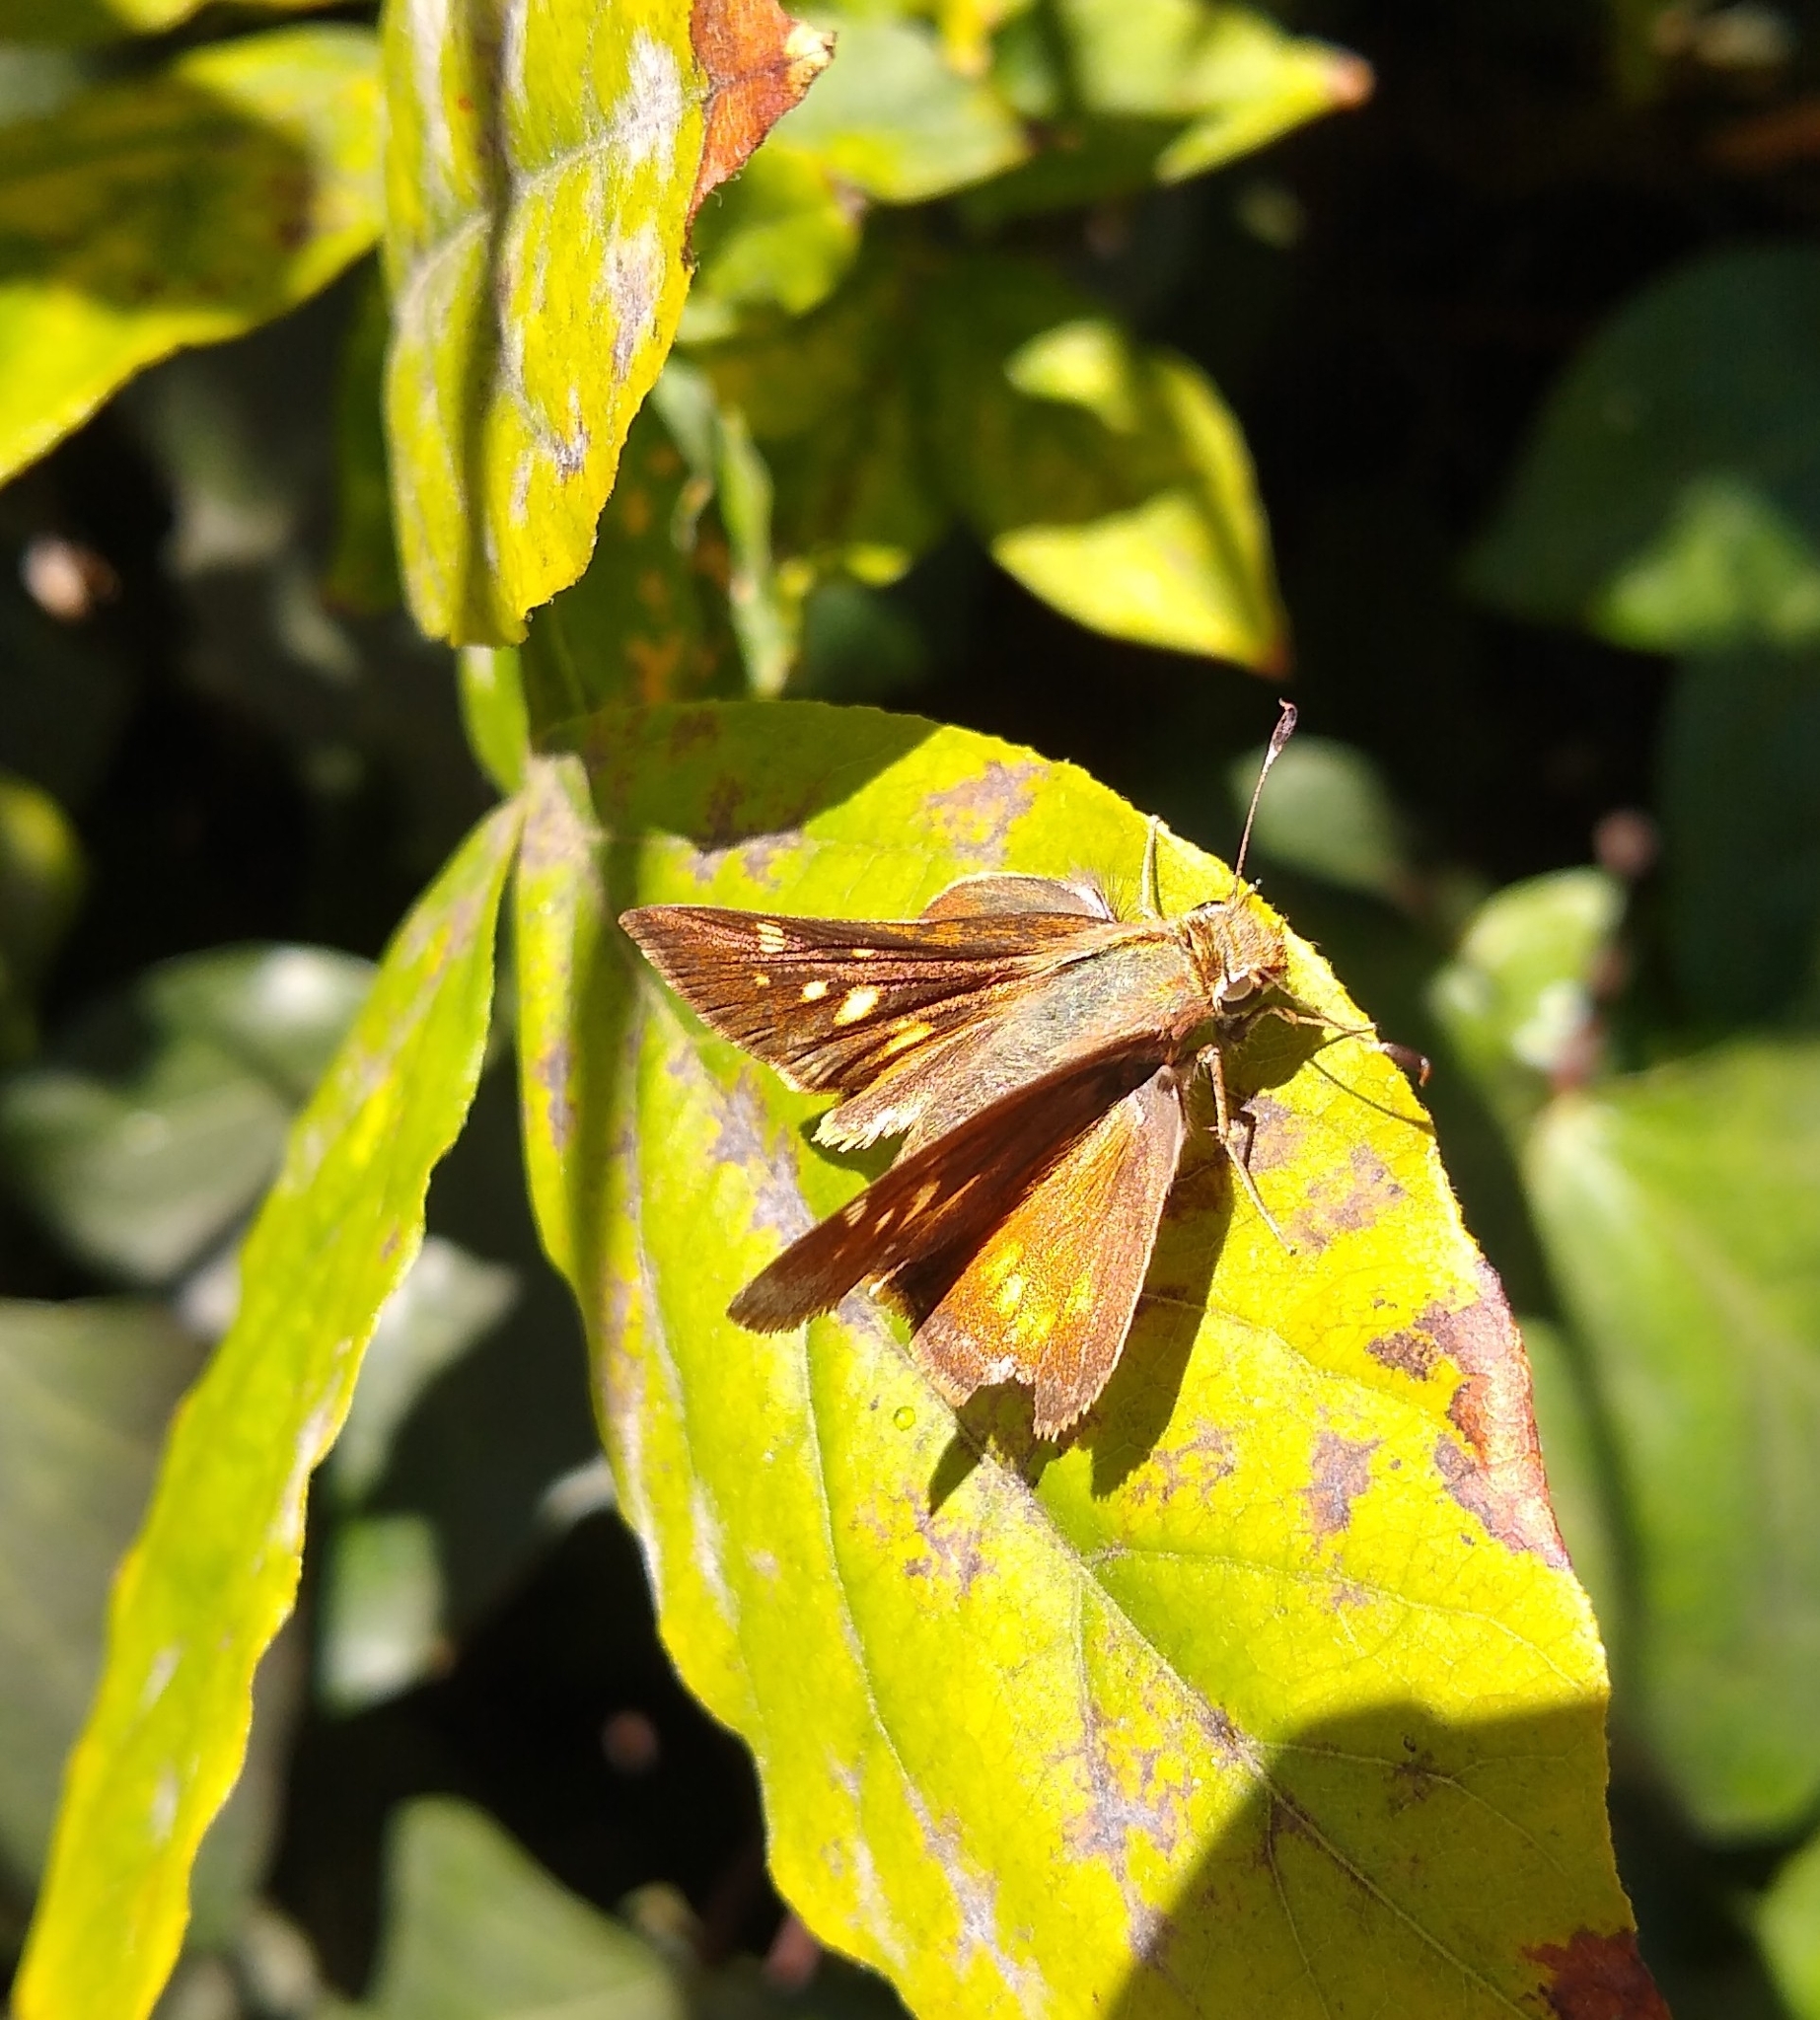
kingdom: Animalia
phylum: Arthropoda
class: Insecta
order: Lepidoptera
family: Hesperiidae
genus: Lon
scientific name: Lon melane
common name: Umber skipper
